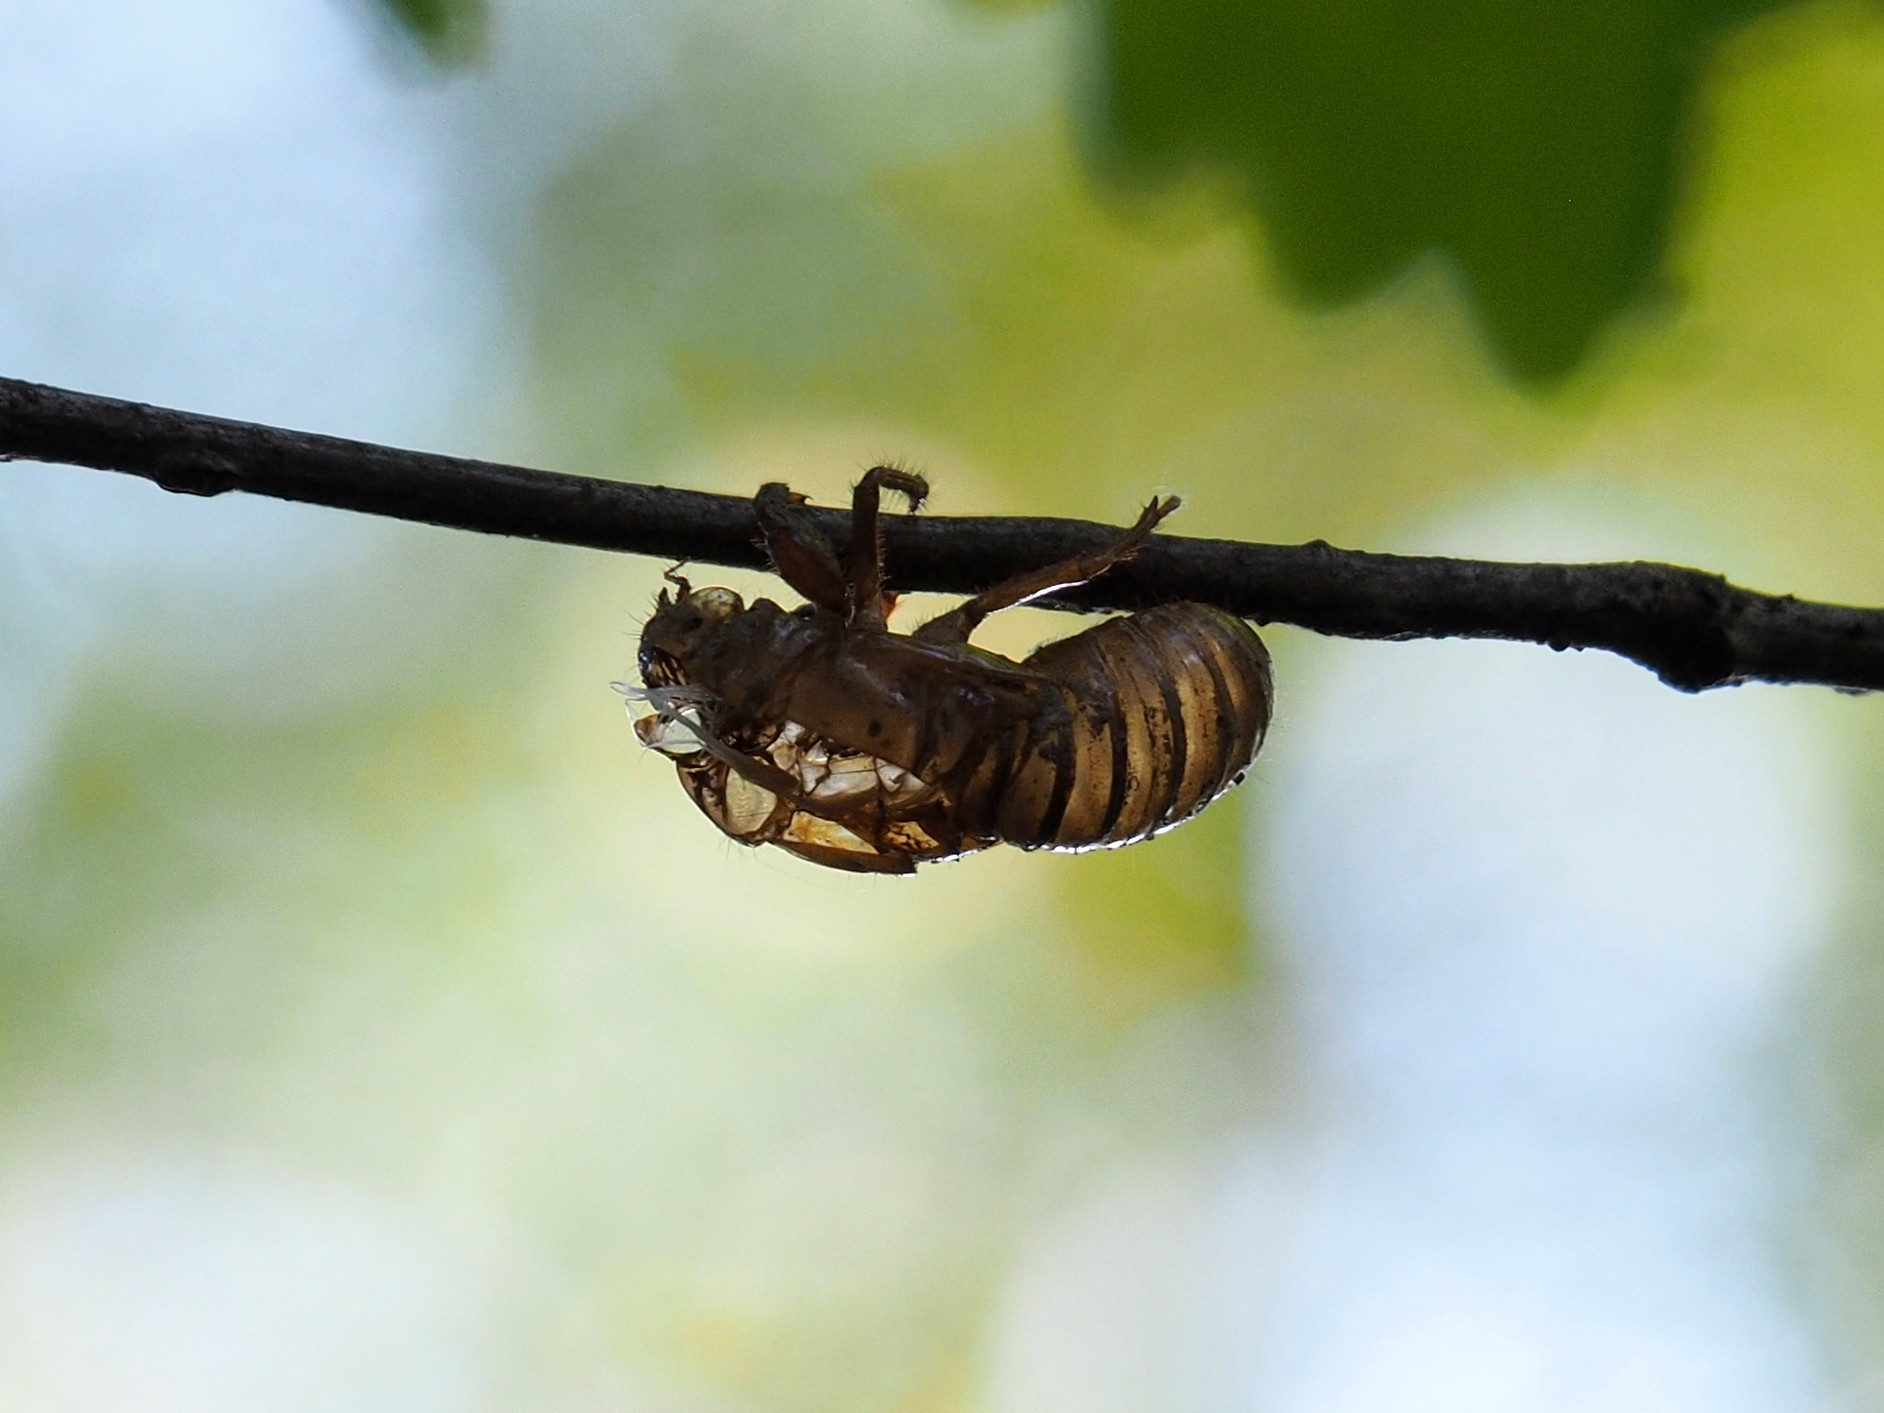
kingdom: Animalia
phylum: Arthropoda
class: Insecta
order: Hemiptera
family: Cicadidae
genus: Magicicada
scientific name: Magicicada
